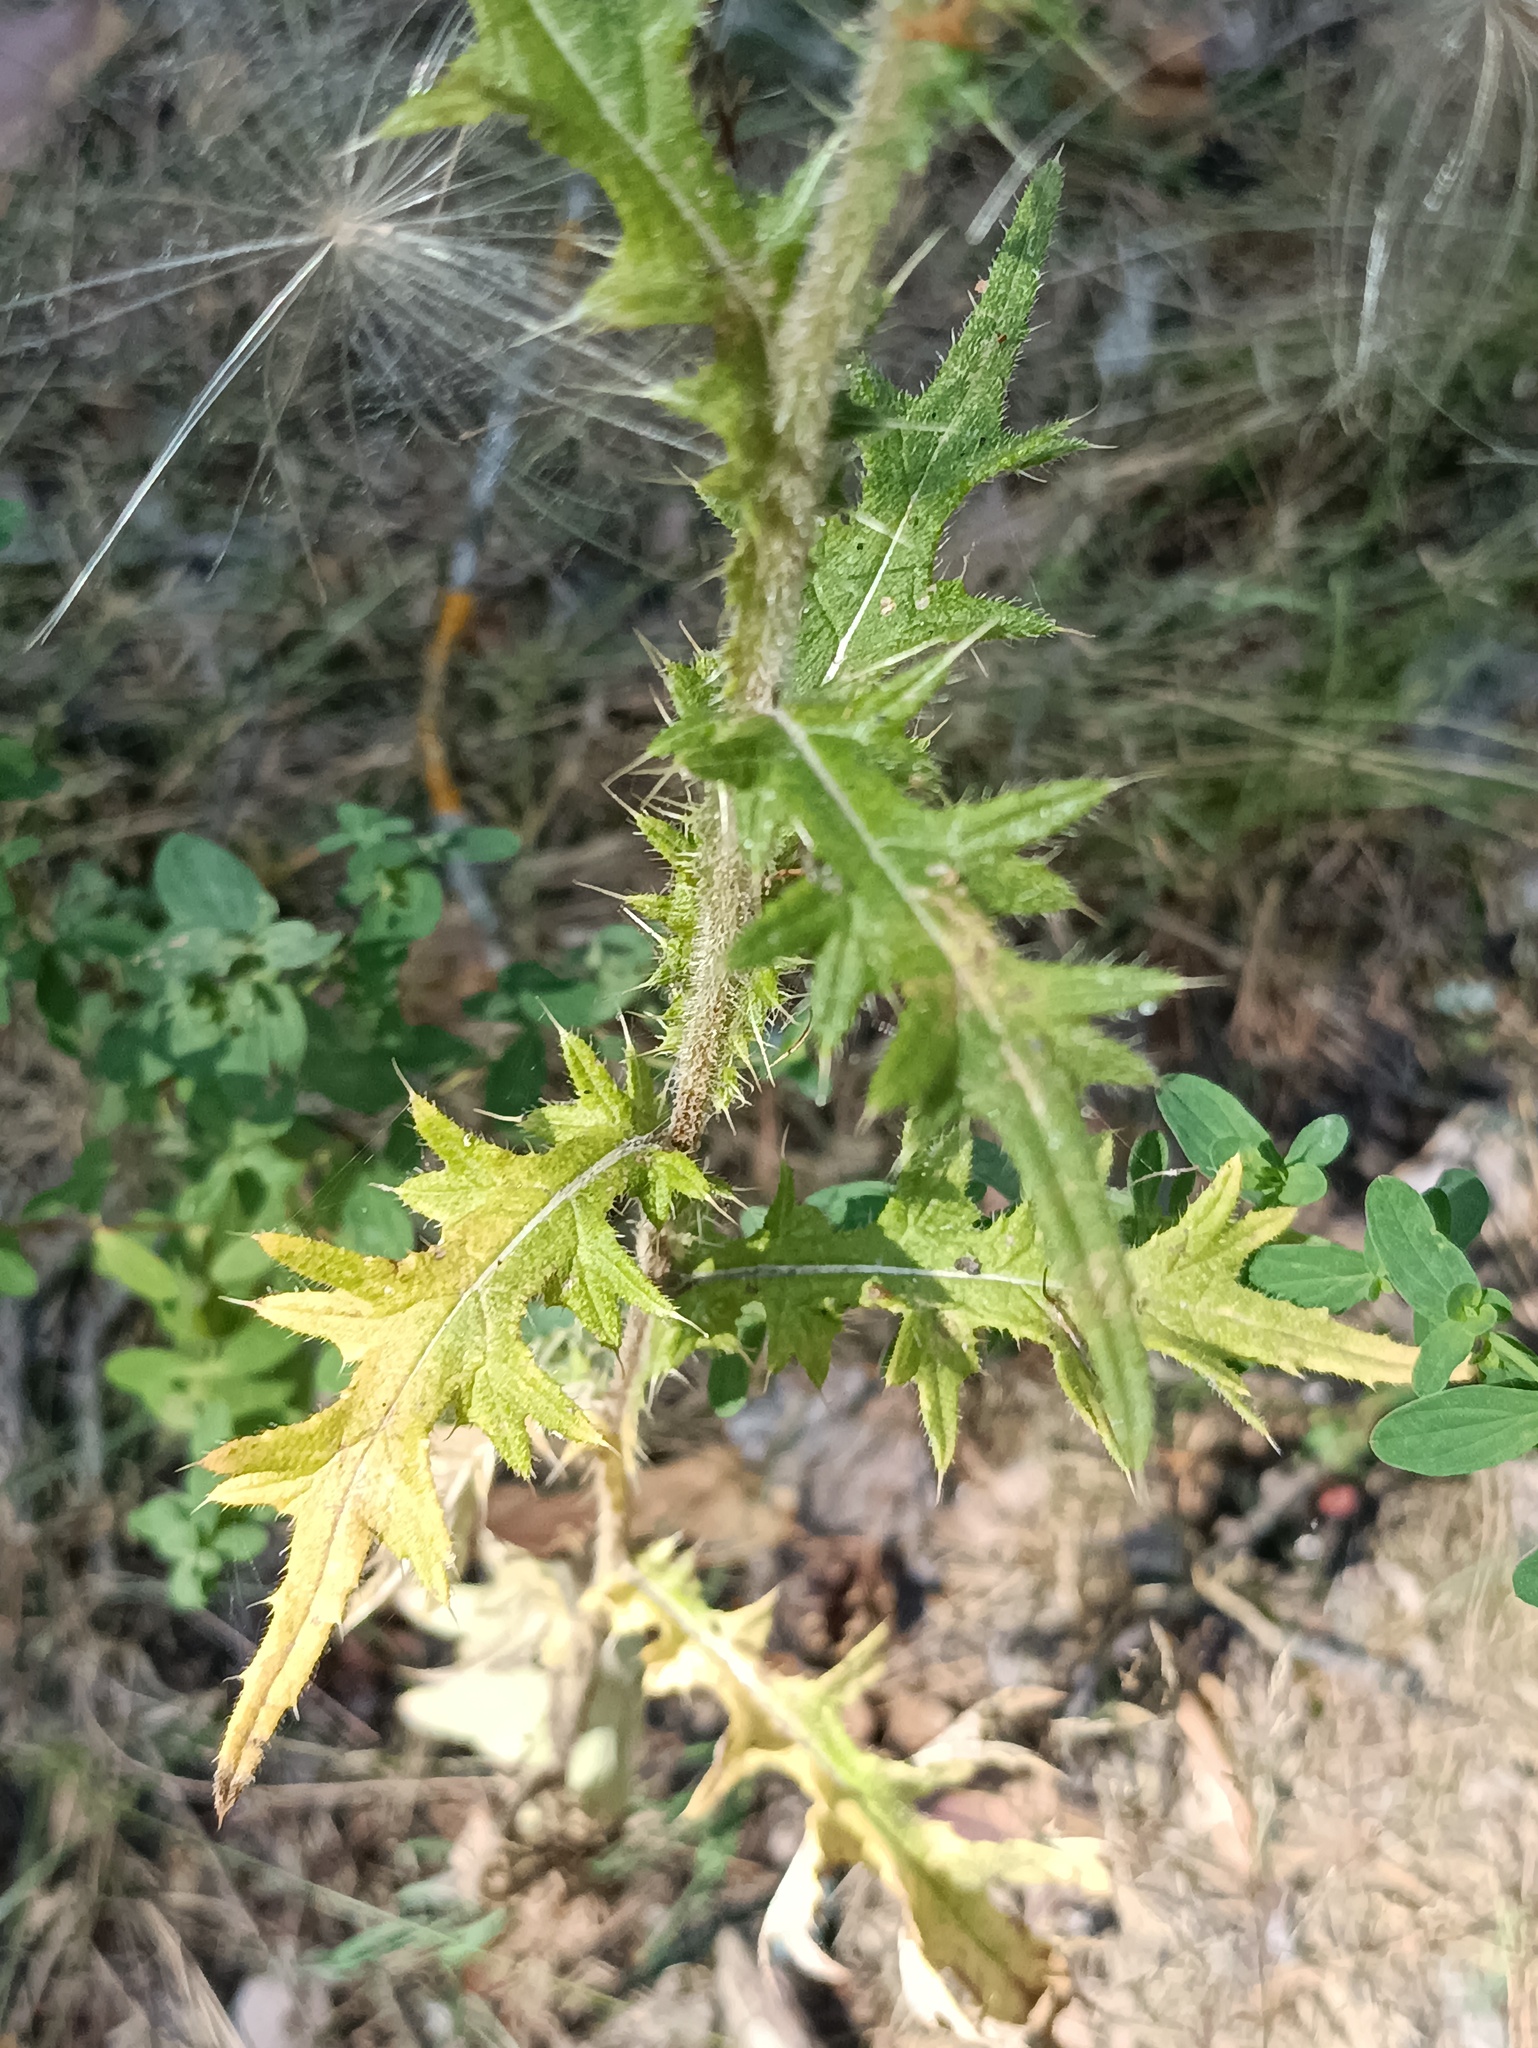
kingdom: Plantae
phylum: Tracheophyta
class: Magnoliopsida
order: Asterales
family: Asteraceae
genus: Cirsium
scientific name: Cirsium vulgare
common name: Bull thistle
